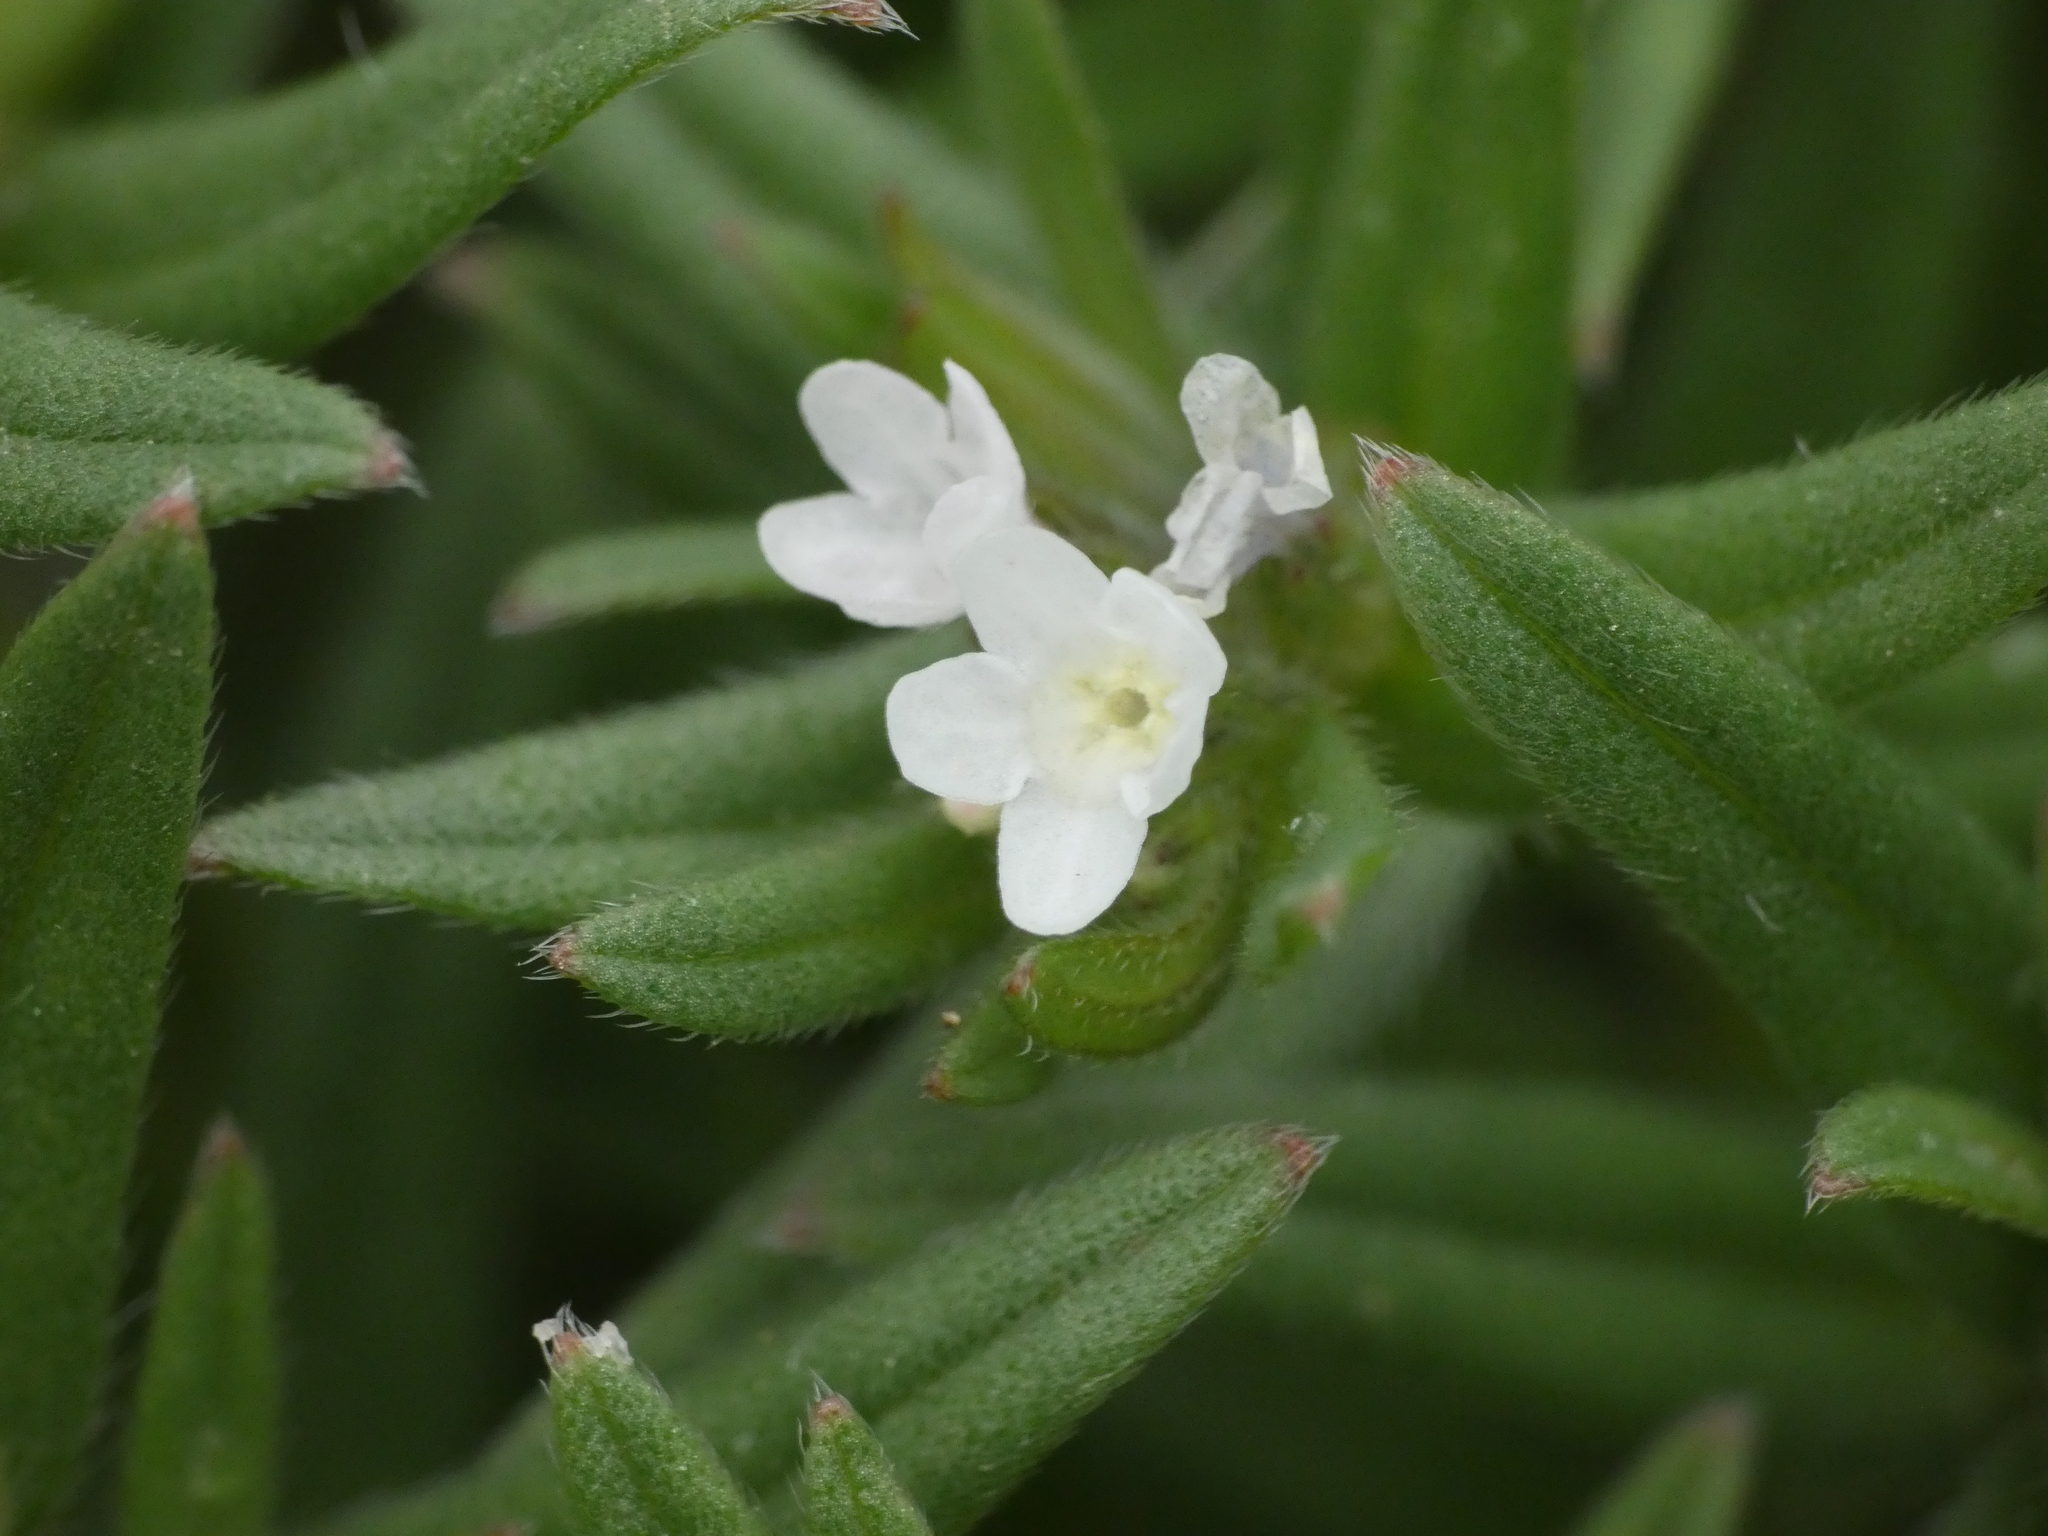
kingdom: Plantae
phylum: Tracheophyta
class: Magnoliopsida
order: Boraginales
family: Boraginaceae
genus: Buglossoides
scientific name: Buglossoides arvensis
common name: Corn gromwell
